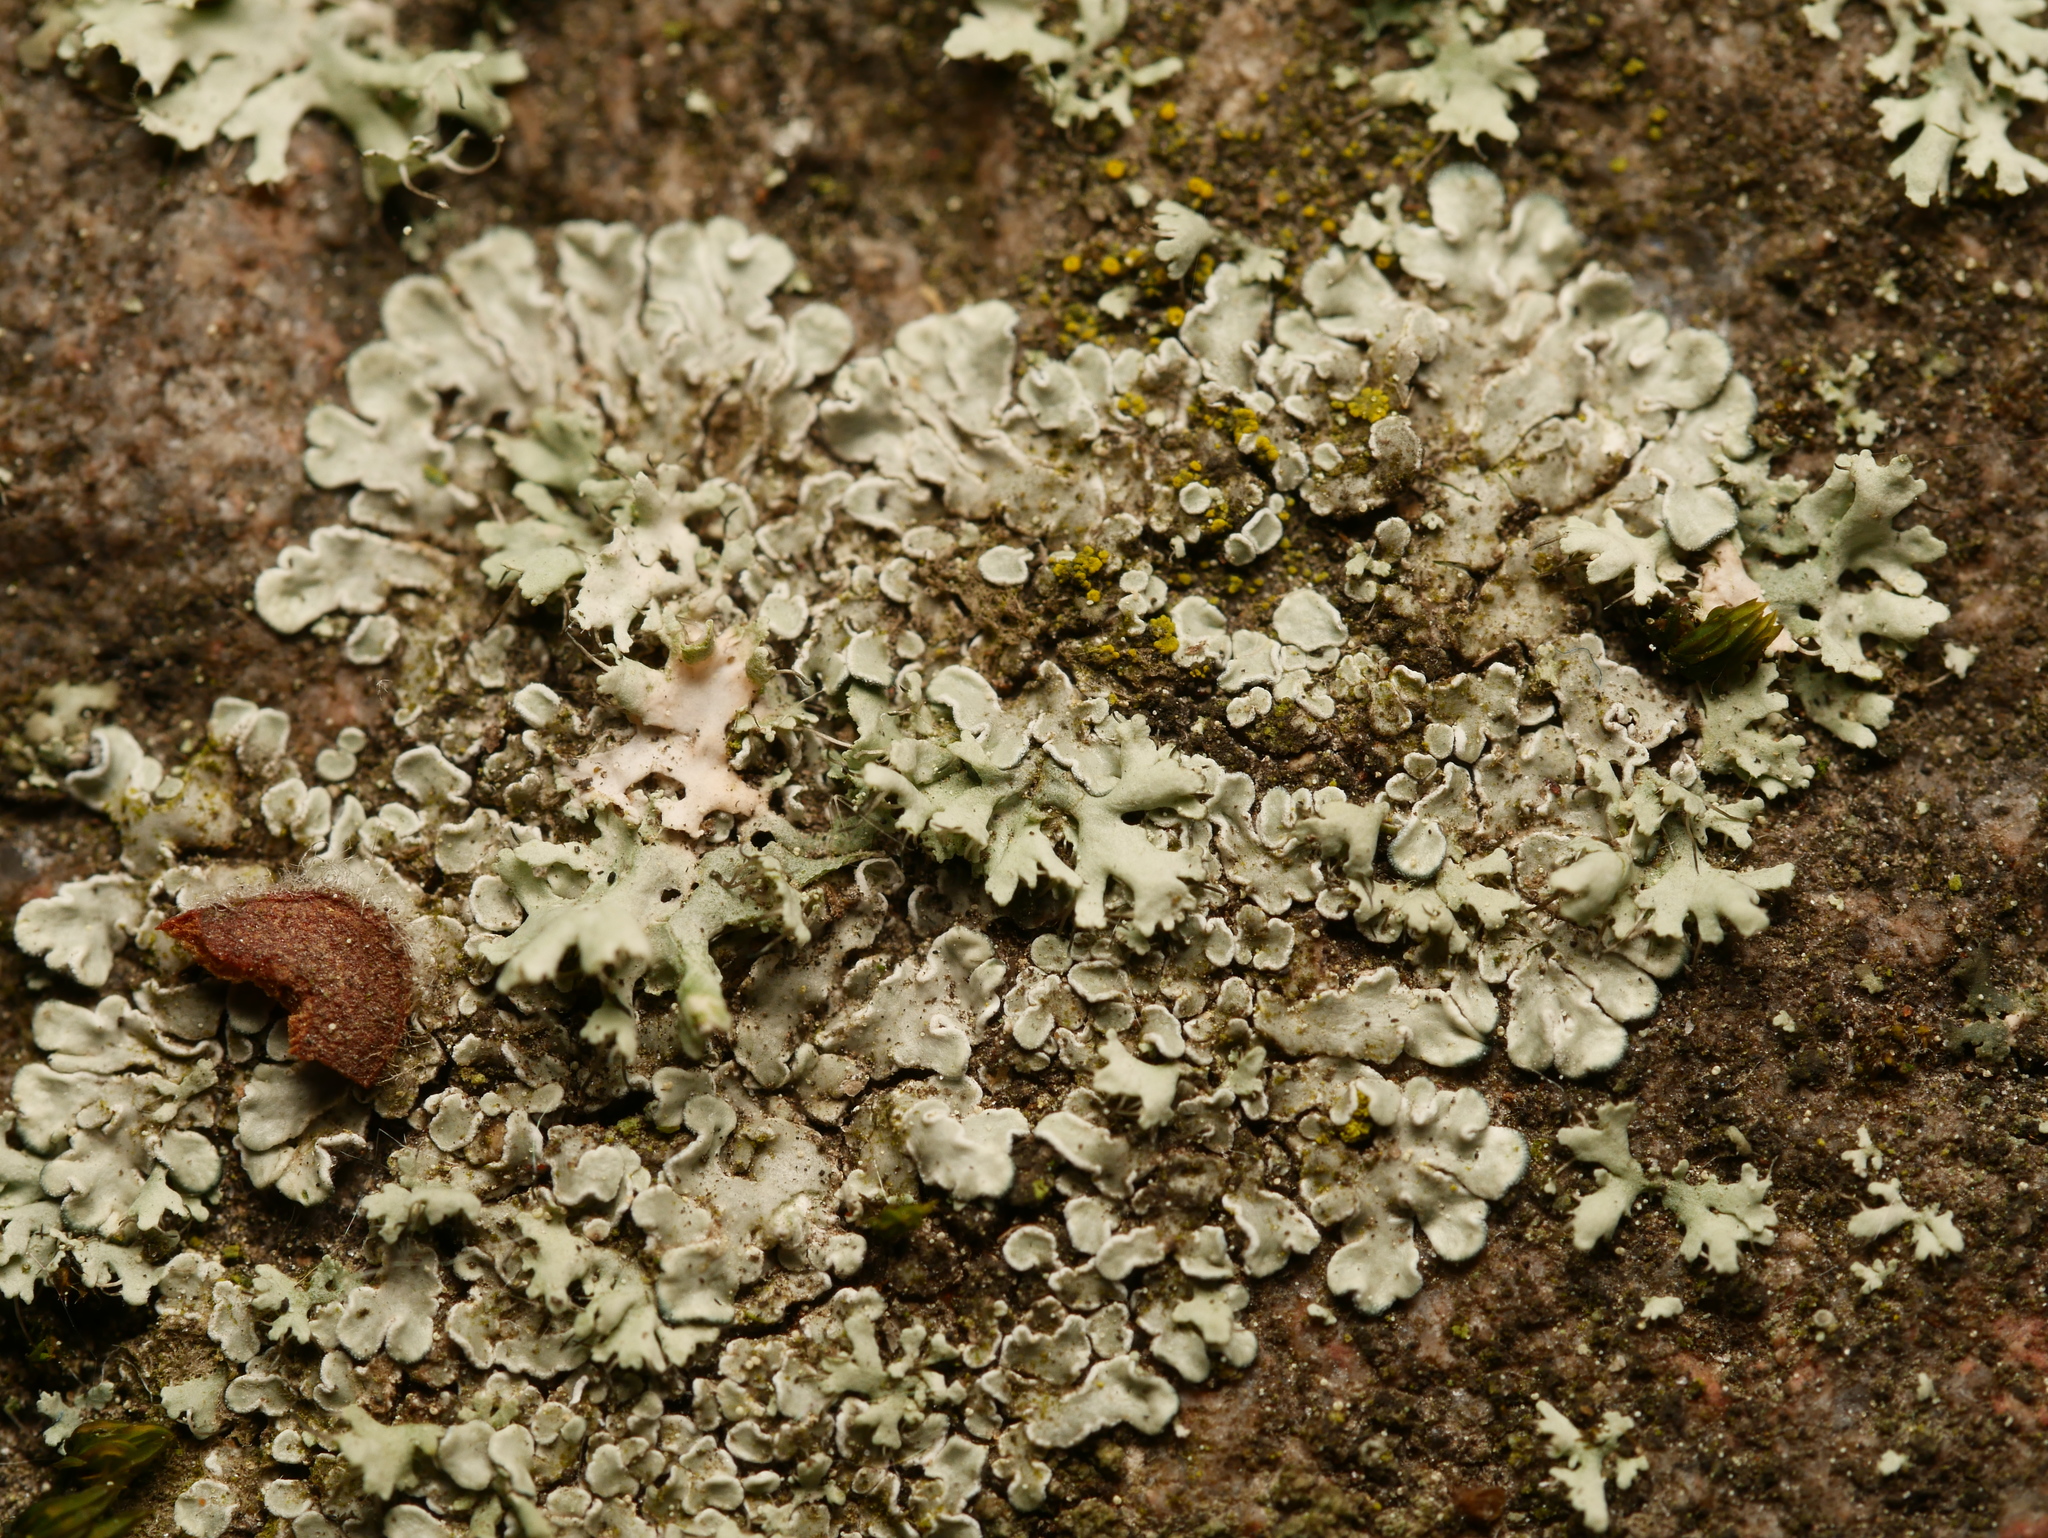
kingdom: Fungi
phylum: Ascomycota
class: Lecanoromycetes
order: Lecanorales
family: Lecanoraceae
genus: Protoparmeliopsis
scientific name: Protoparmeliopsis muralis
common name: Stonewall rim lichen
